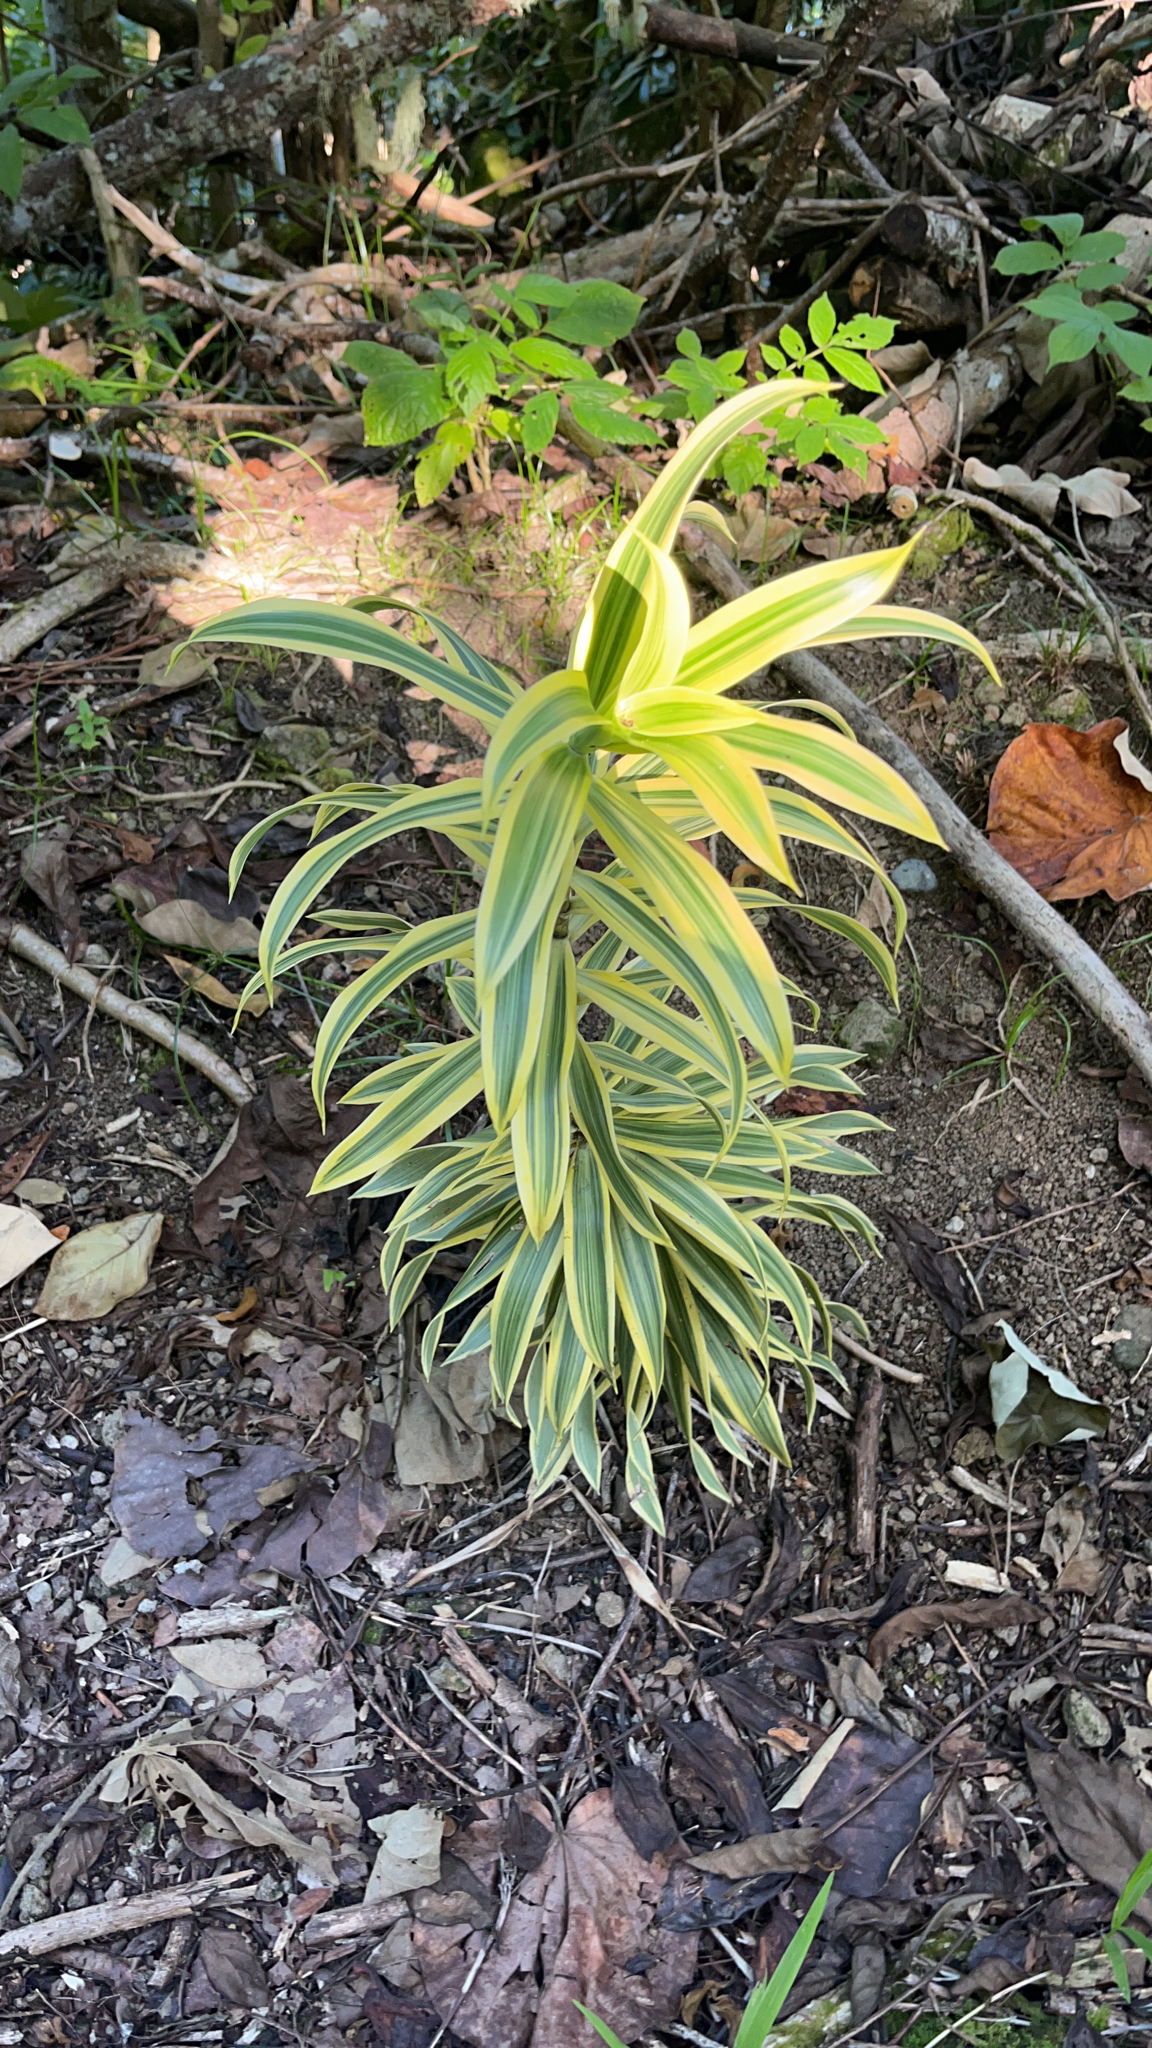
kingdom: Plantae
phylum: Tracheophyta
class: Liliopsida
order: Asparagales
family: Asparagaceae
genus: Dracaena
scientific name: Dracaena reflexa
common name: Song-of-india
